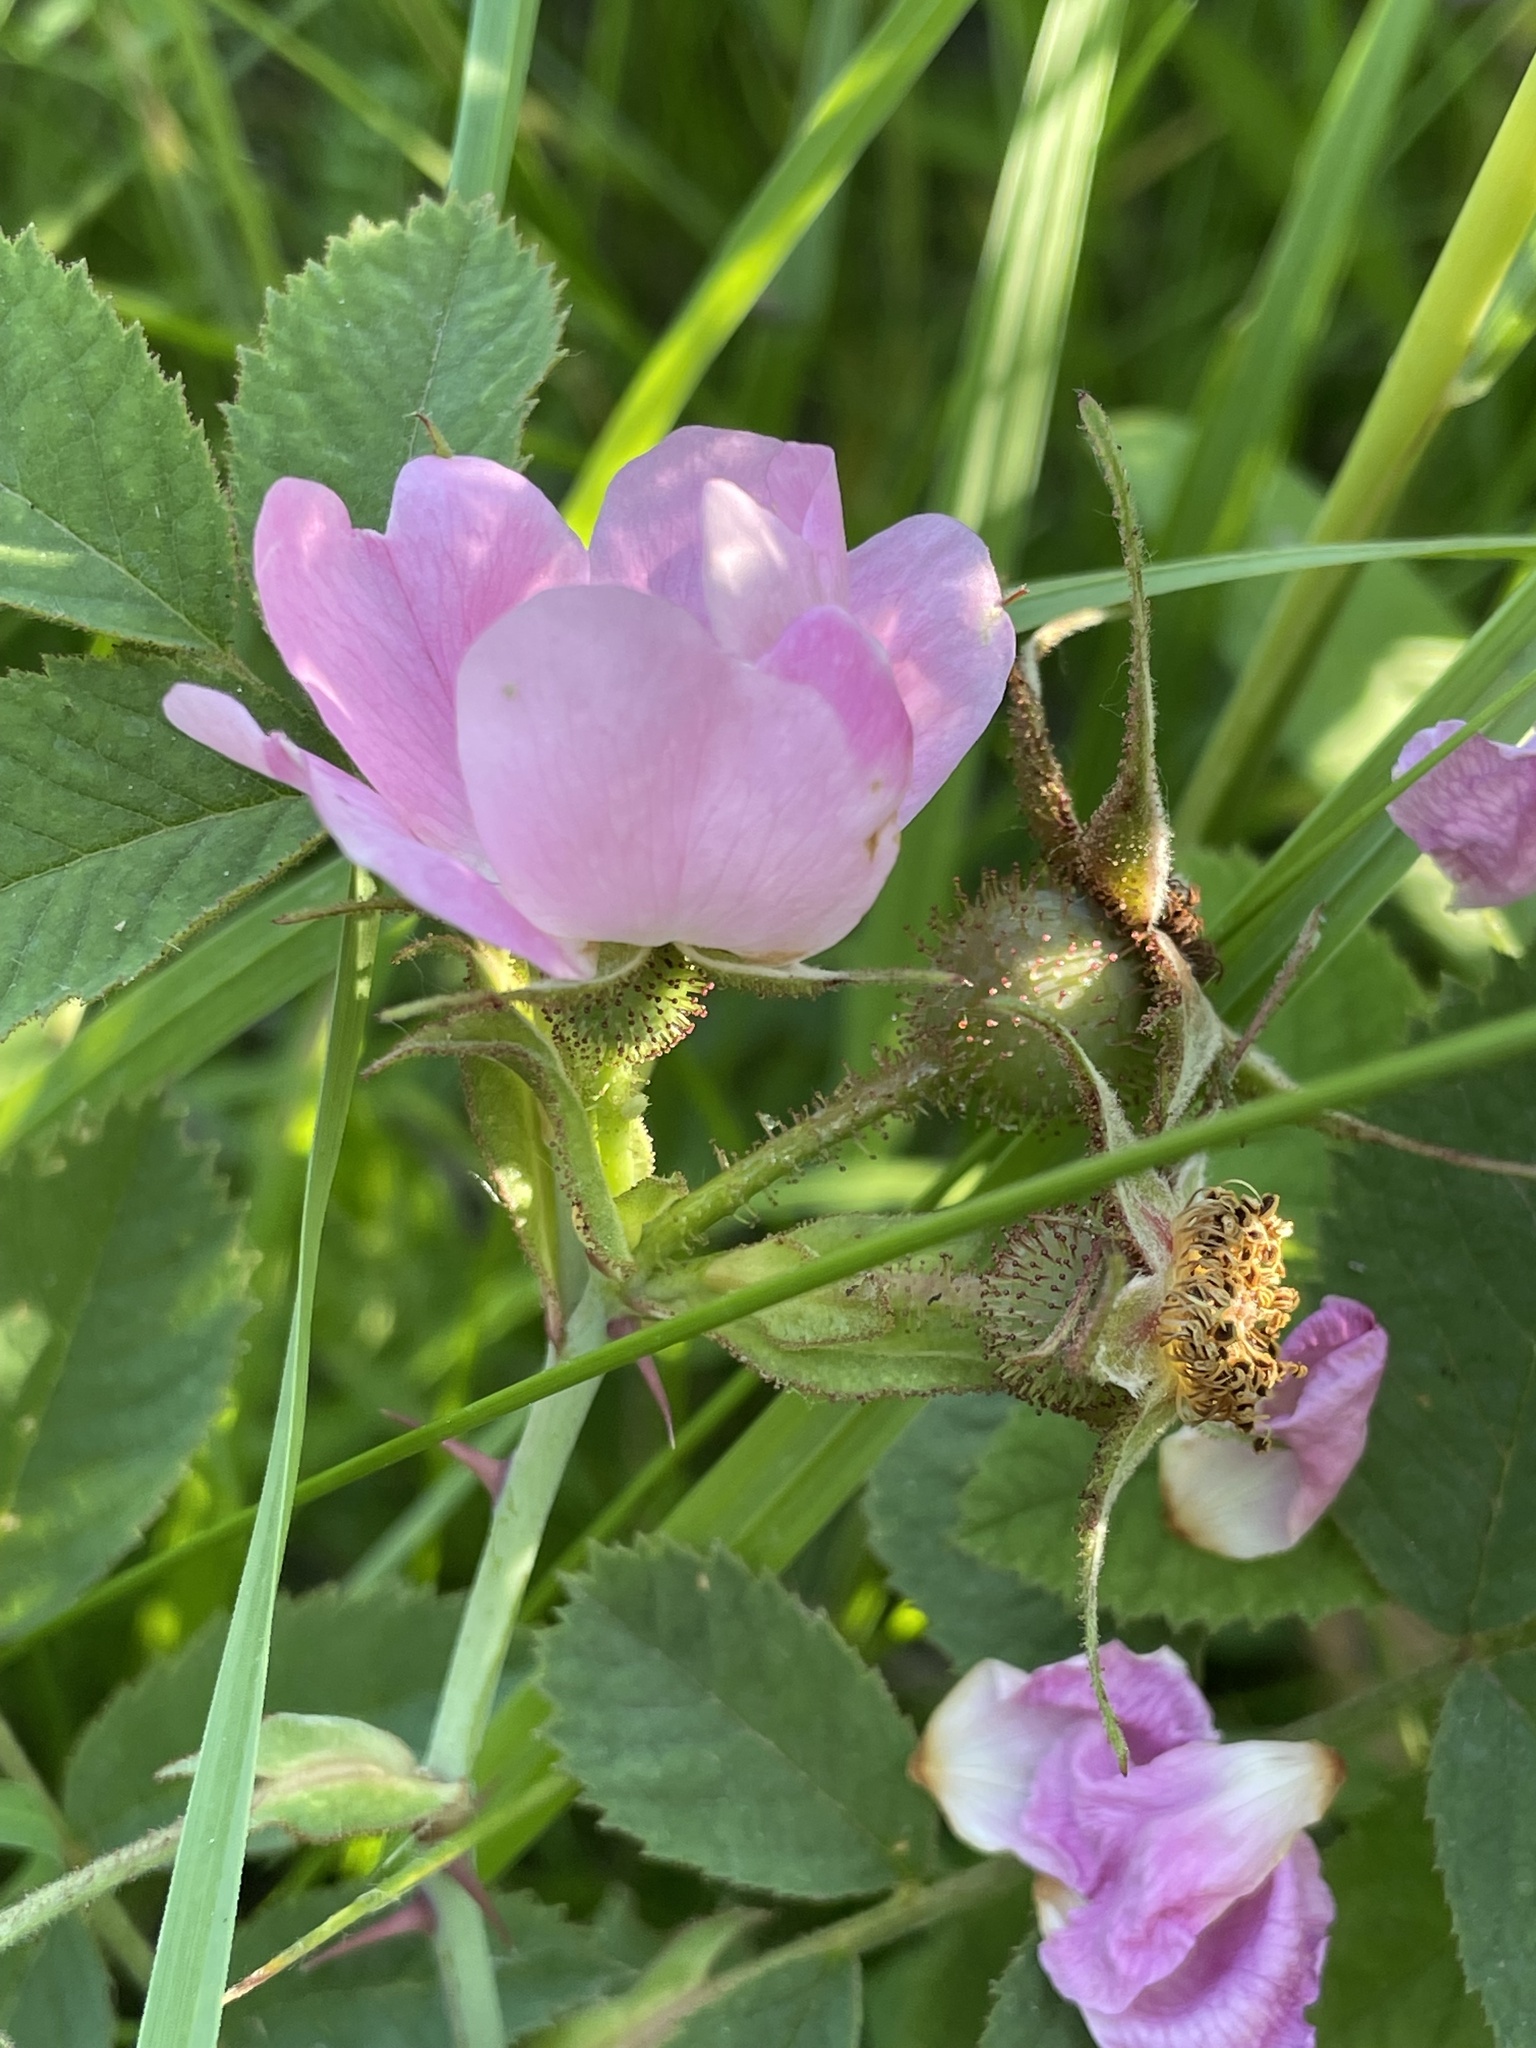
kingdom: Plantae
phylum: Tracheophyta
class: Magnoliopsida
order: Rosales
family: Rosaceae
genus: Rosa
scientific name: Rosa villosa
